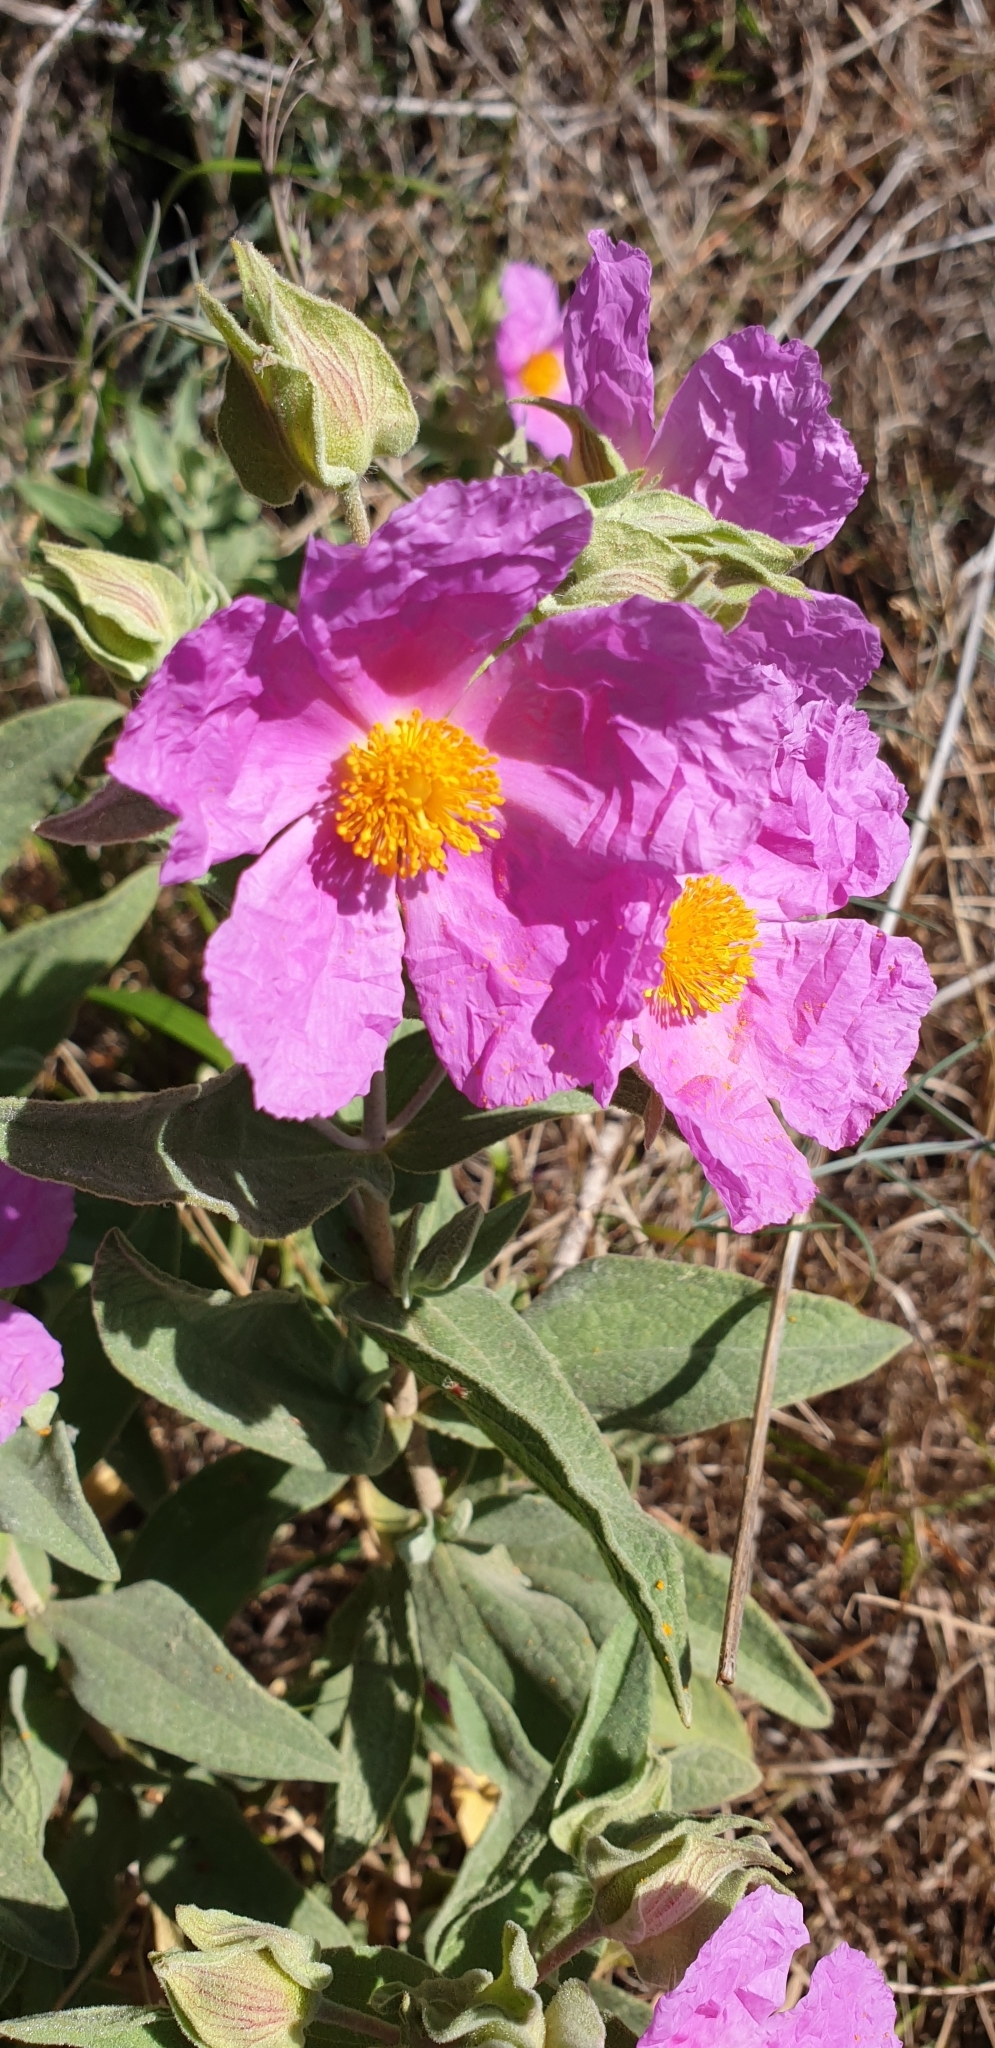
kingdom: Plantae
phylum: Tracheophyta
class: Magnoliopsida
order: Malvales
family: Cistaceae
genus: Cistus
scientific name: Cistus albidus
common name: White-leaf rock-rose
